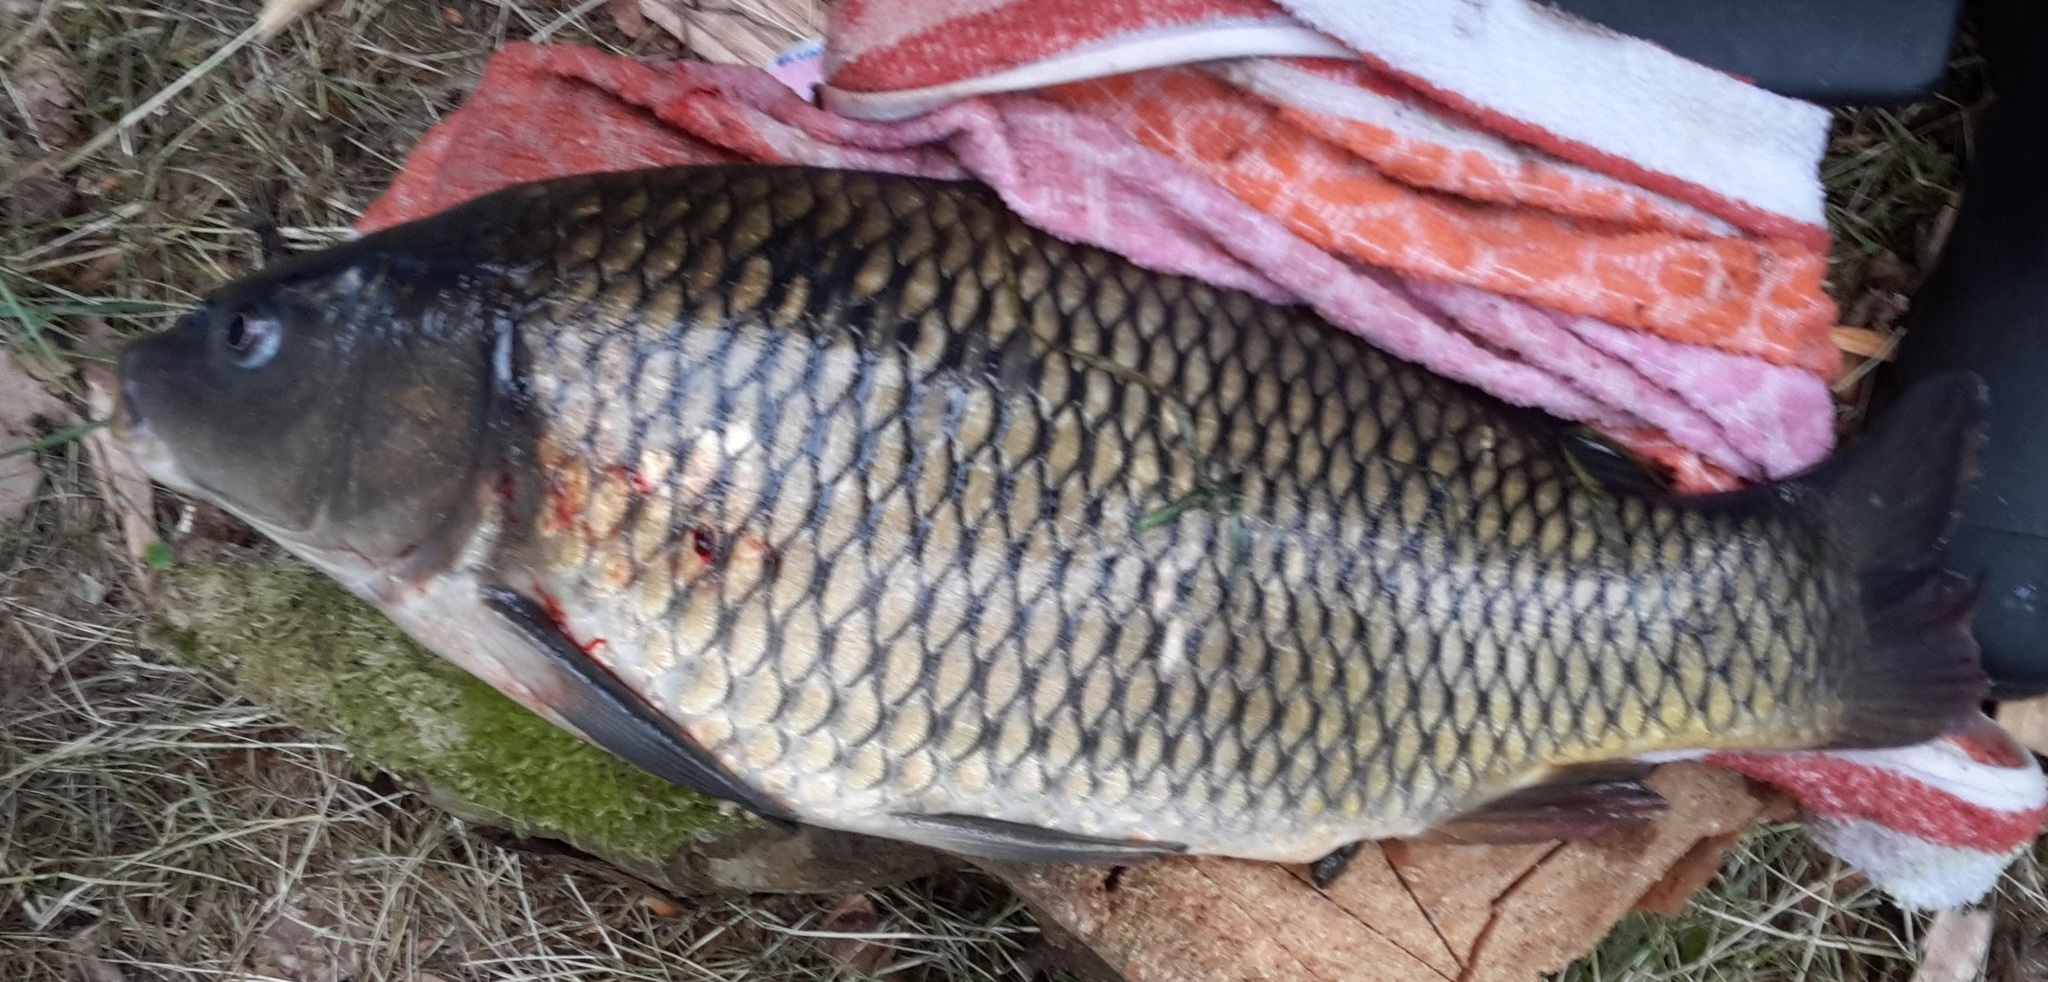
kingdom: Animalia
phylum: Chordata
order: Cypriniformes
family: Cyprinidae
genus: Cyprinus
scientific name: Cyprinus carpio
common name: Common carp
